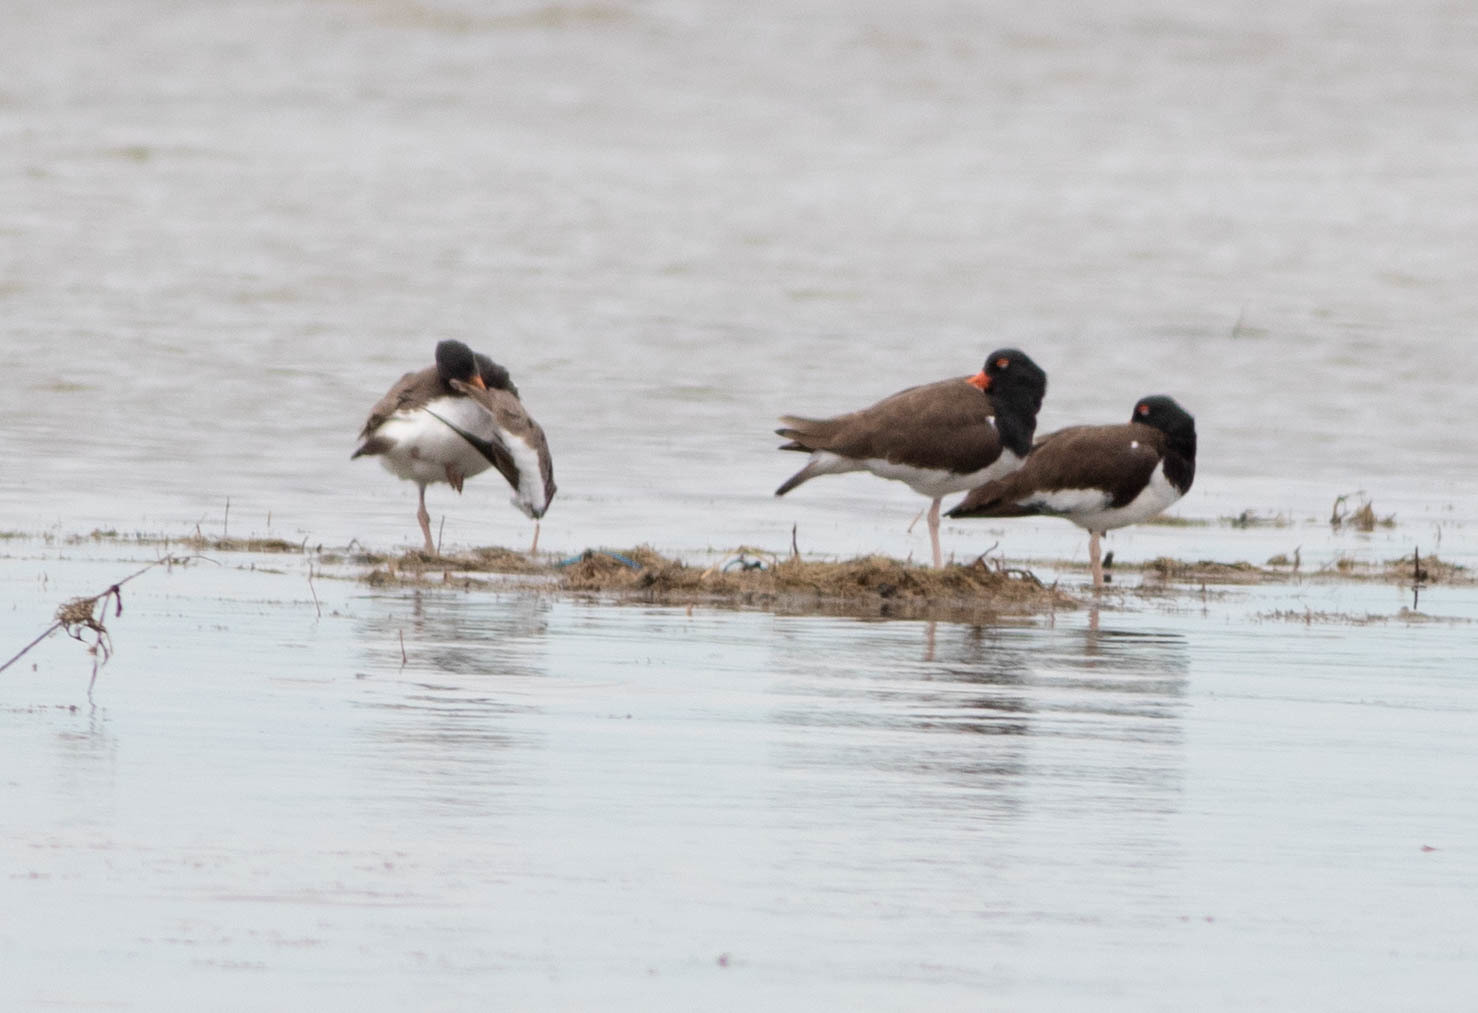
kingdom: Animalia
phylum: Chordata
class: Aves
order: Charadriiformes
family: Haematopodidae
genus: Haematopus
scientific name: Haematopus palliatus
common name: American oystercatcher
